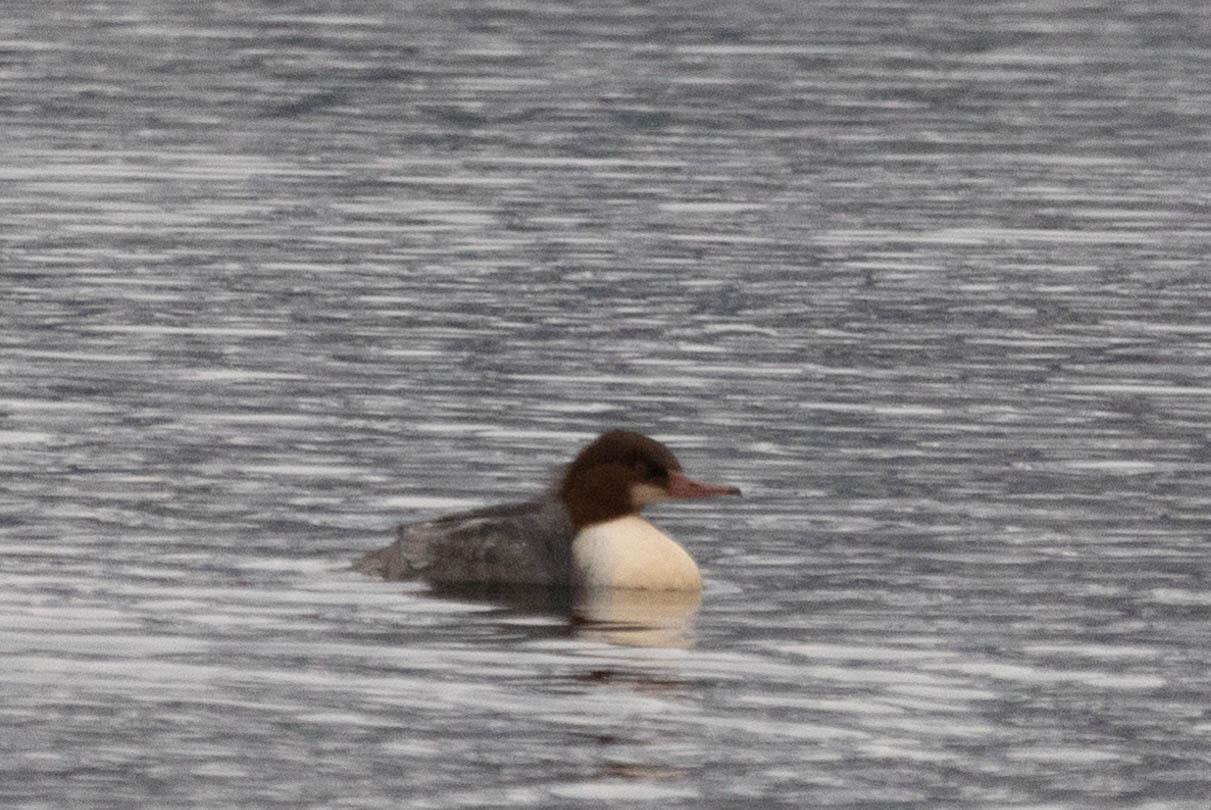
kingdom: Animalia
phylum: Chordata
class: Aves
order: Anseriformes
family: Anatidae
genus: Mergus
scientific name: Mergus merganser
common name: Common merganser
